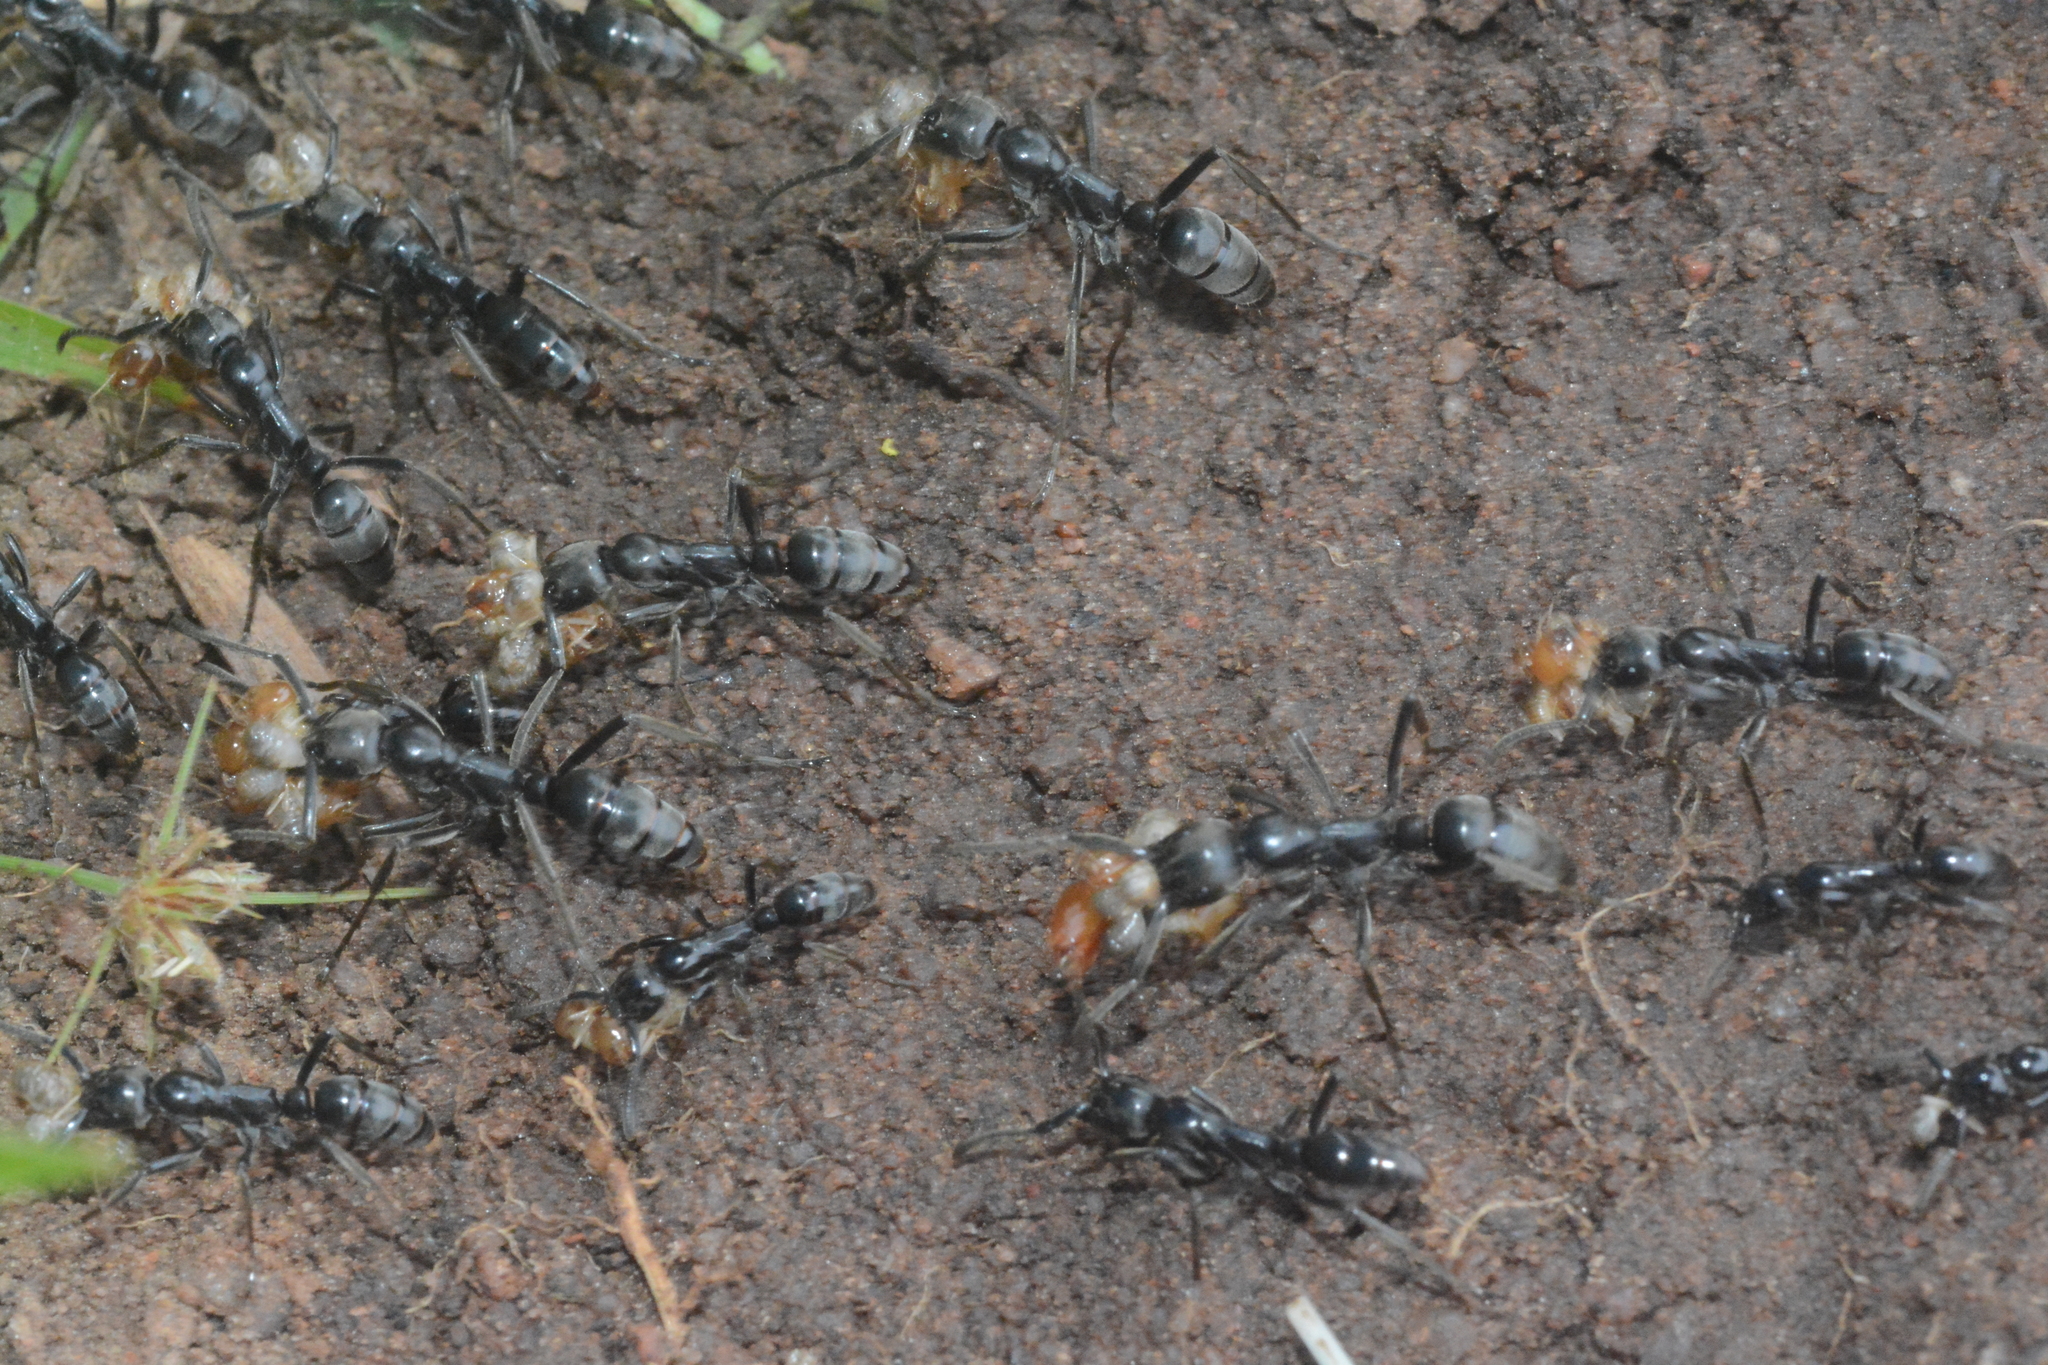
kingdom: Animalia
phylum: Arthropoda
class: Insecta
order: Hymenoptera
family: Formicidae
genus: Megaponera
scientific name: Megaponera analis
